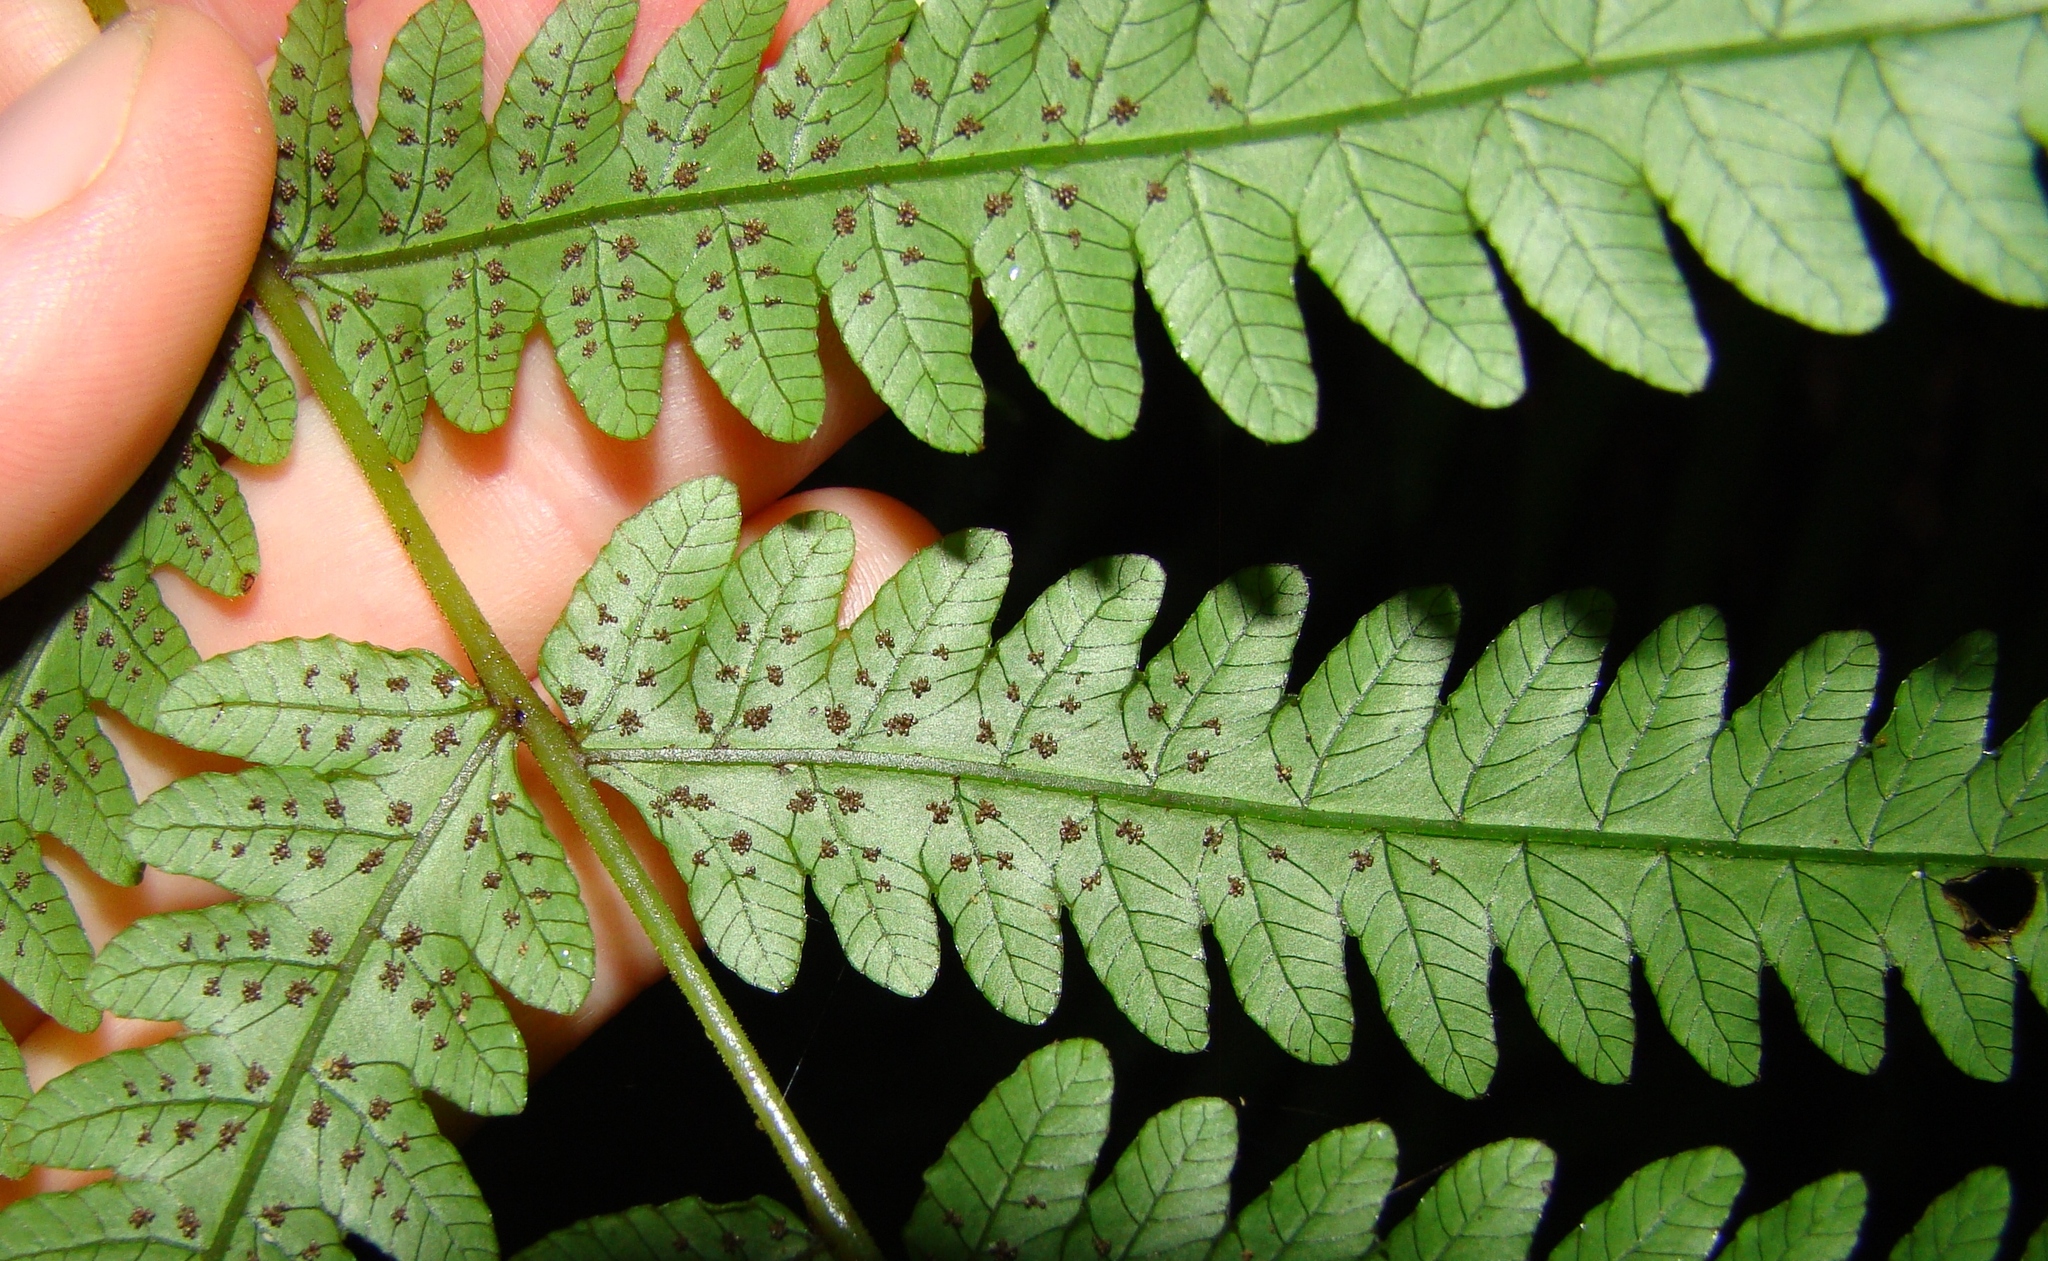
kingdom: Plantae
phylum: Tracheophyta
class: Polypodiopsida
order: Polypodiales
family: Thelypteridaceae
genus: Pakau
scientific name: Pakau pennigera
